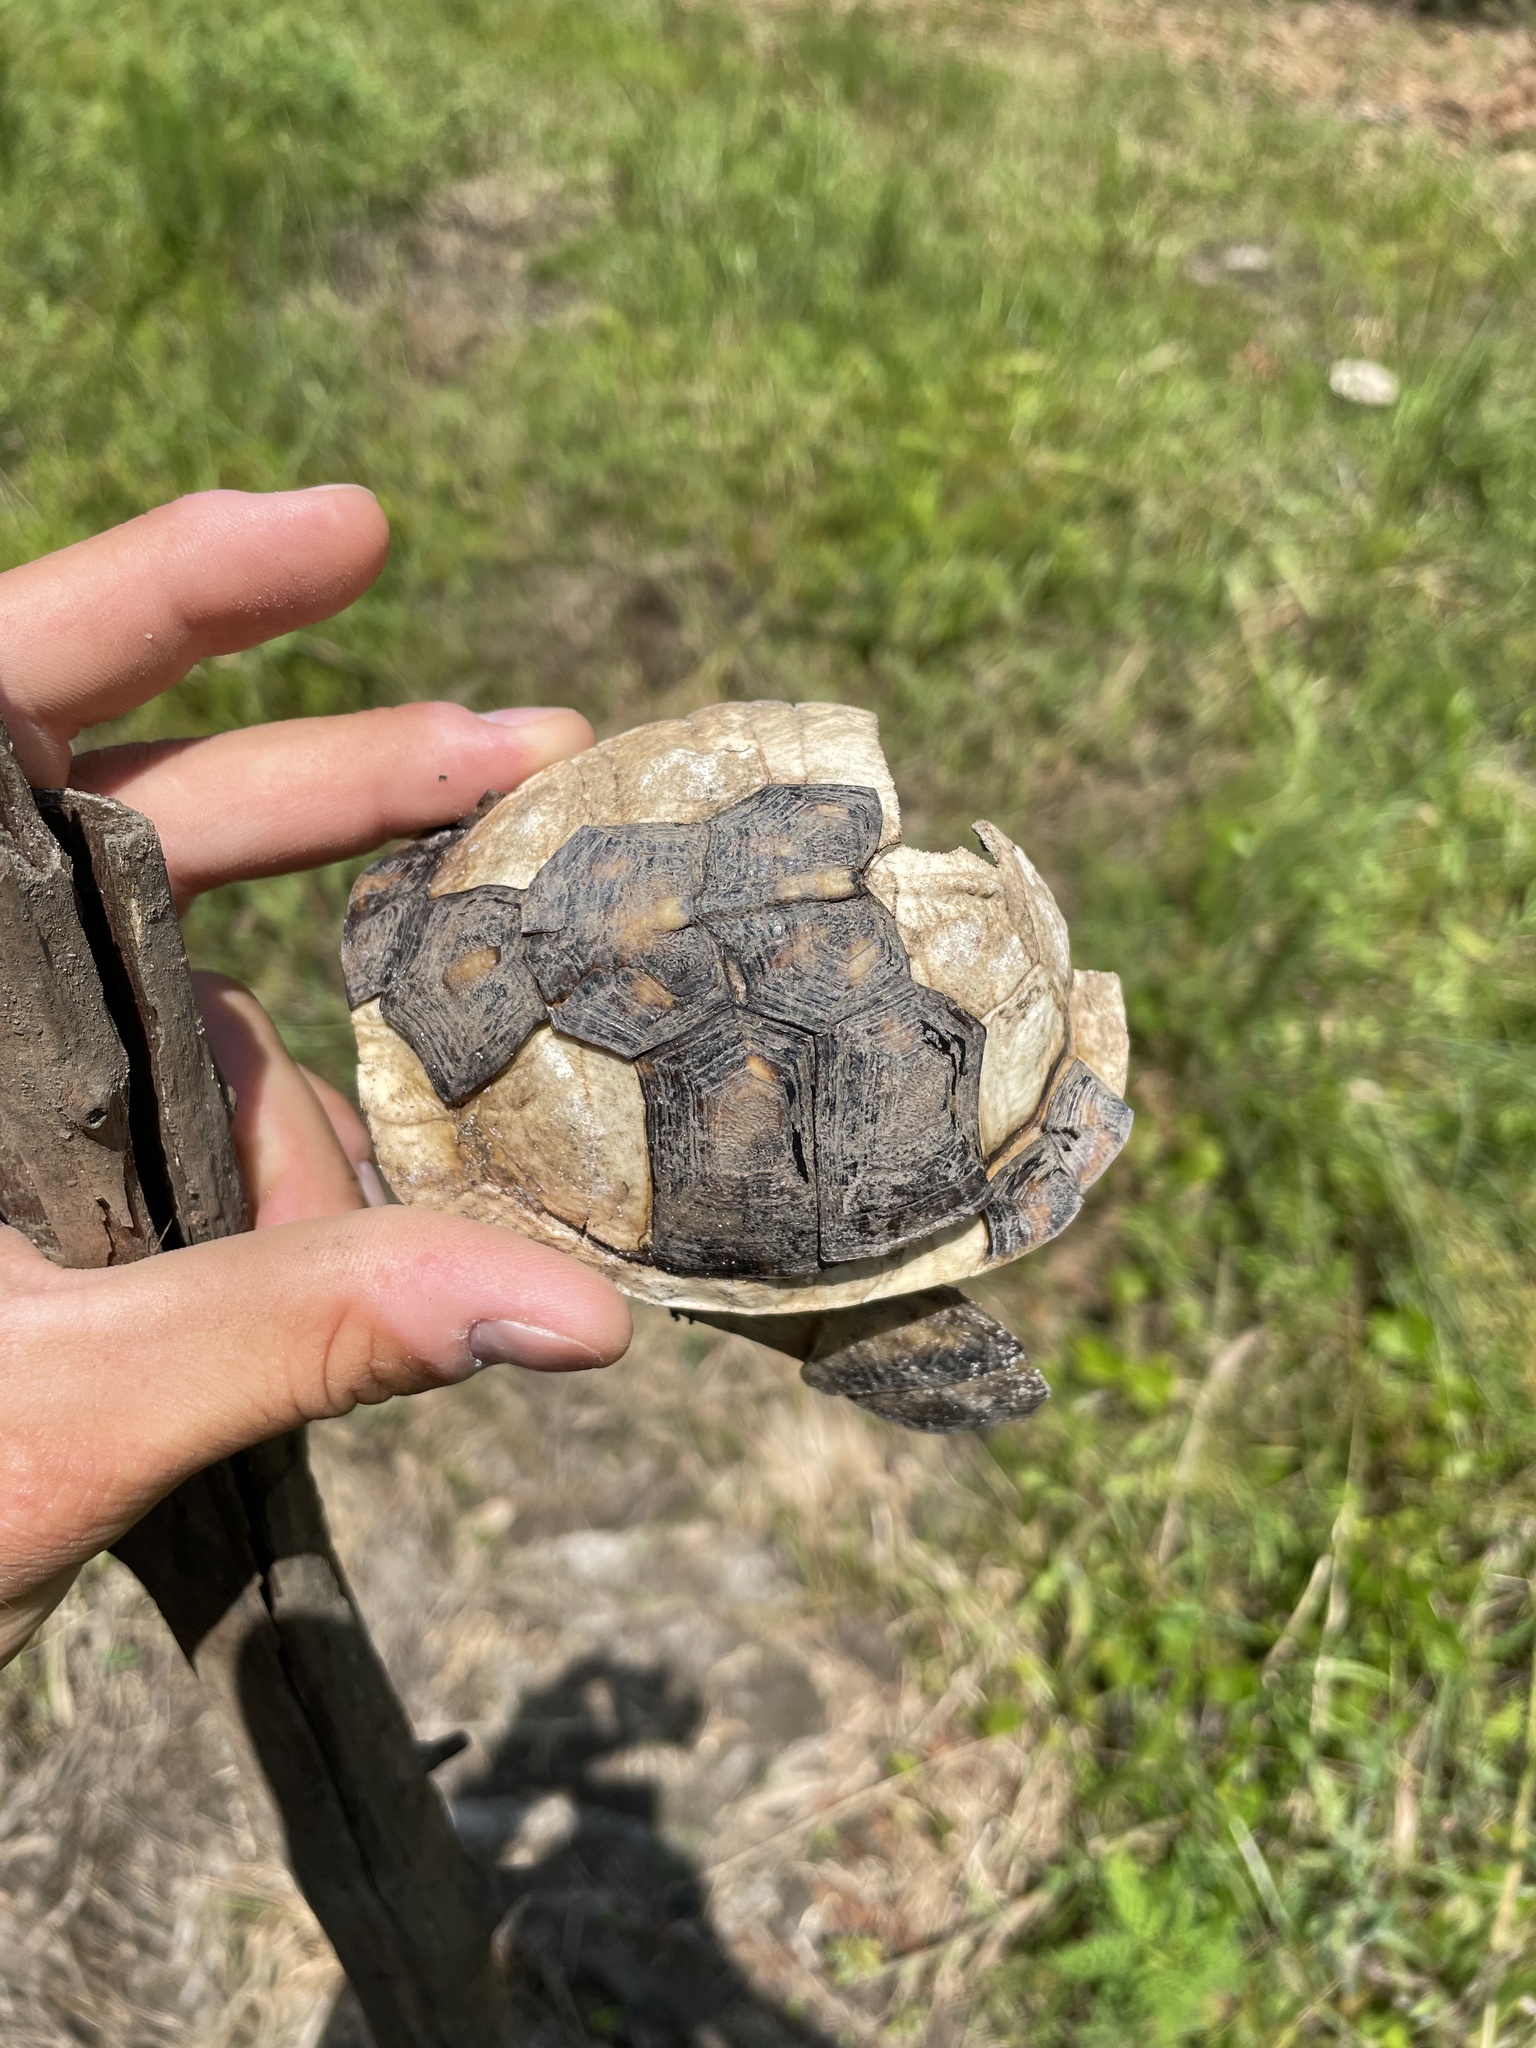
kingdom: Animalia
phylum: Chordata
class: Testudines
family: Emydidae
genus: Terrapene
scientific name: Terrapene carolina
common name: Common box turtle
